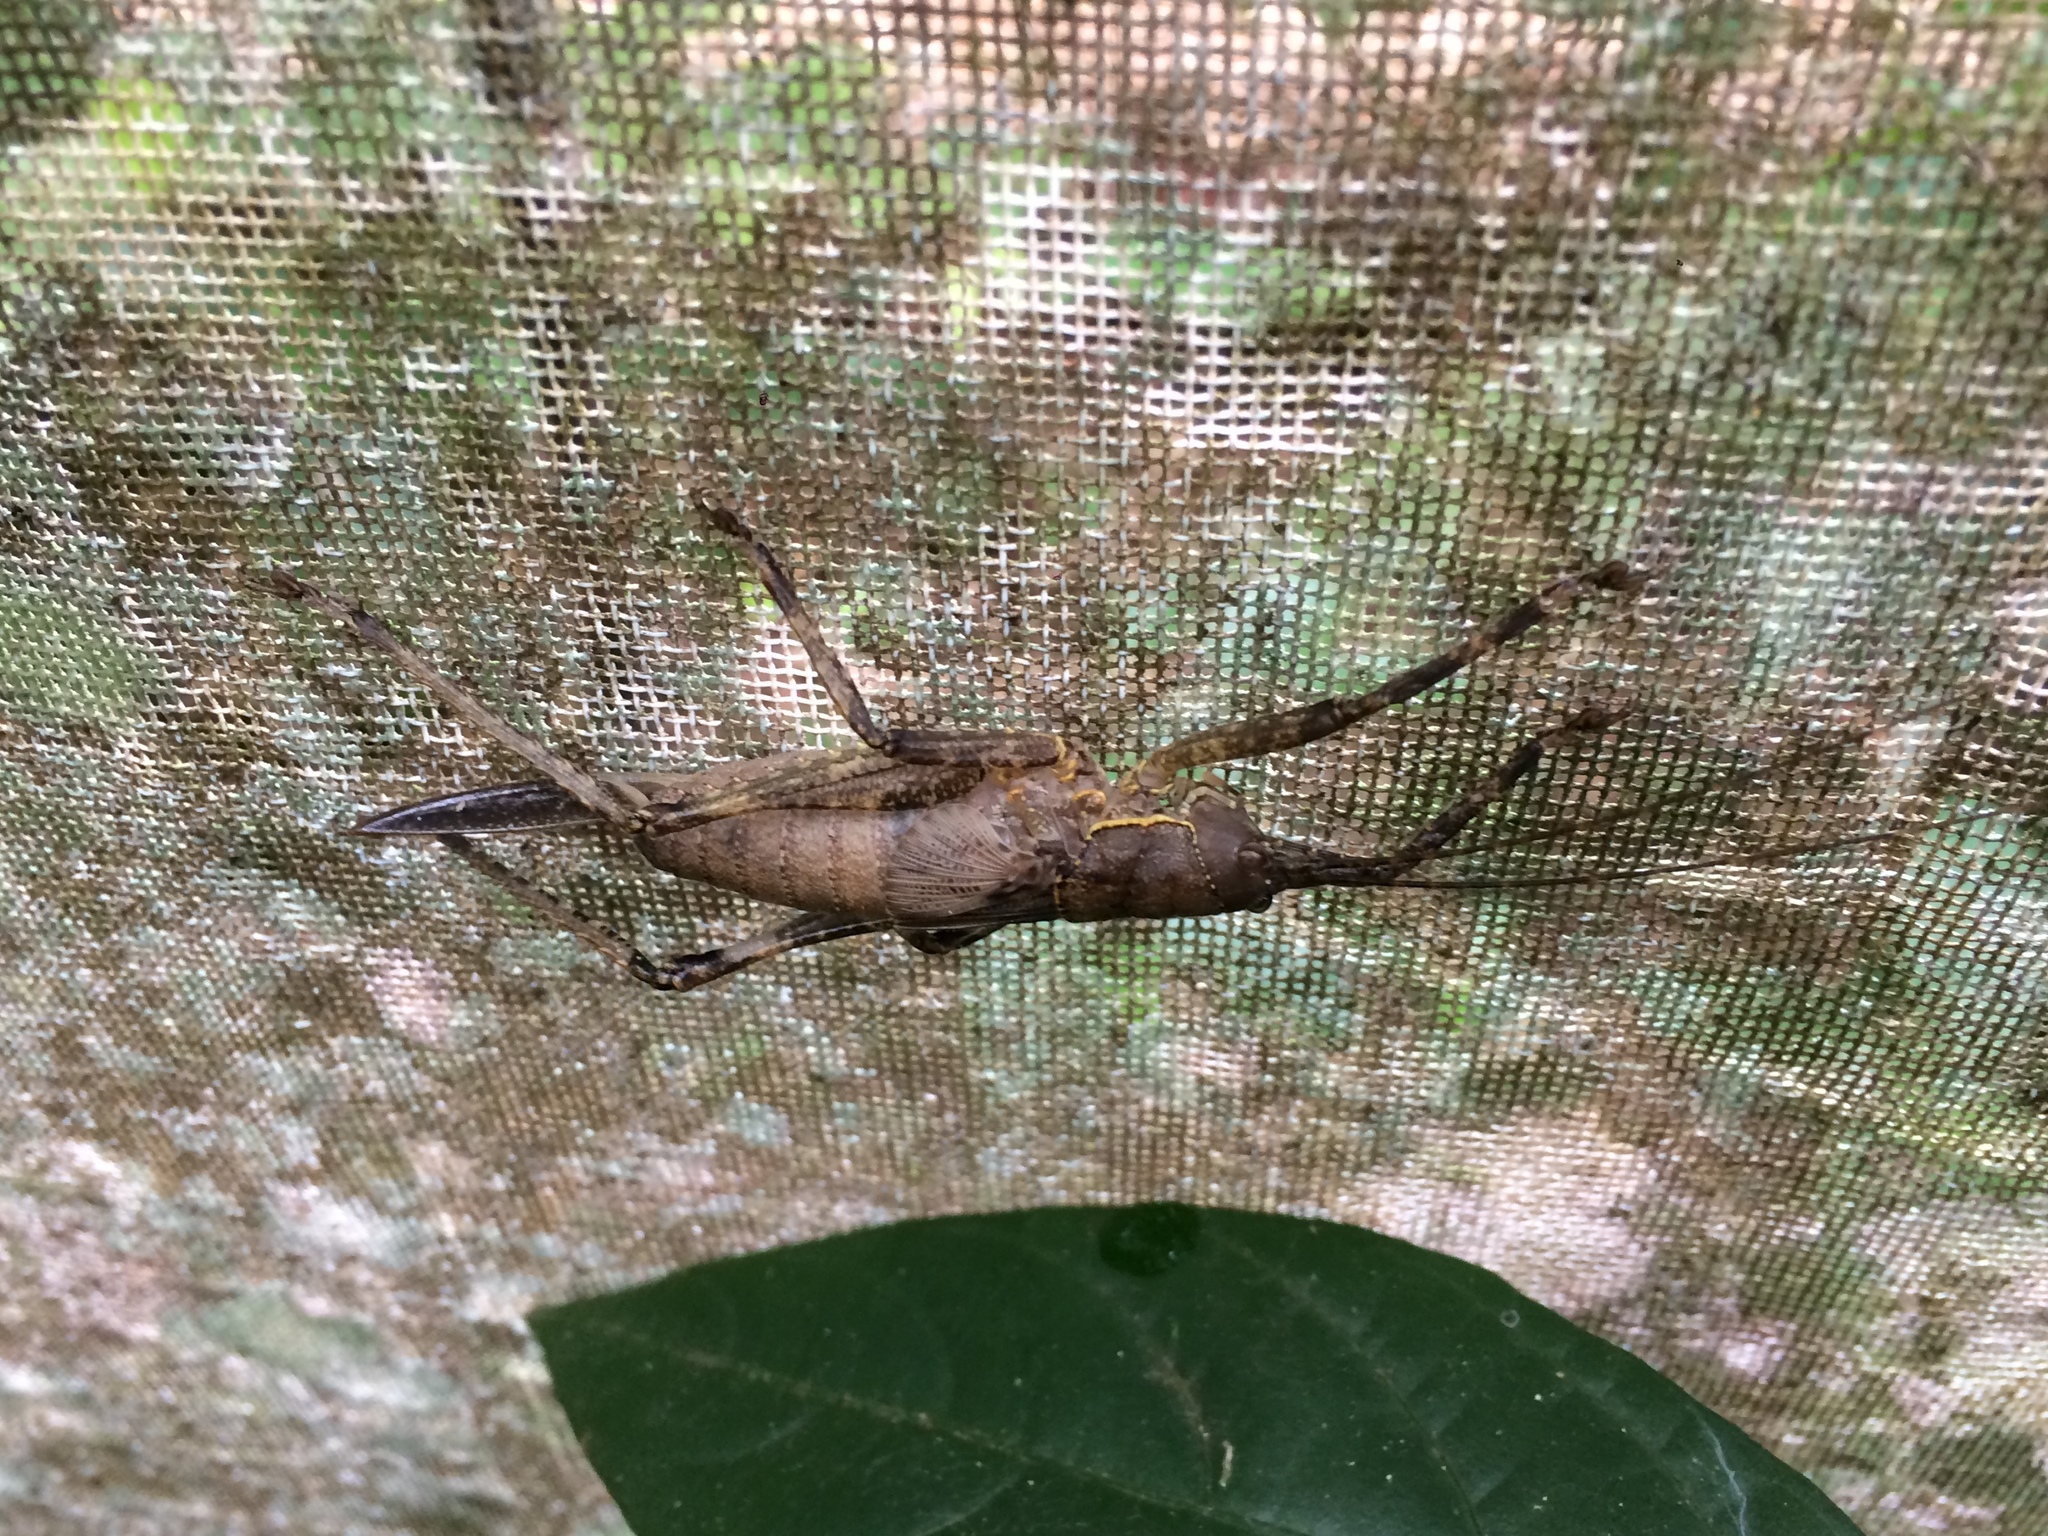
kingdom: Animalia
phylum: Arthropoda
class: Insecta
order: Orthoptera
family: Tettigoniidae
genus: Meroncidius
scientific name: Meroncidius flavolimbatus
